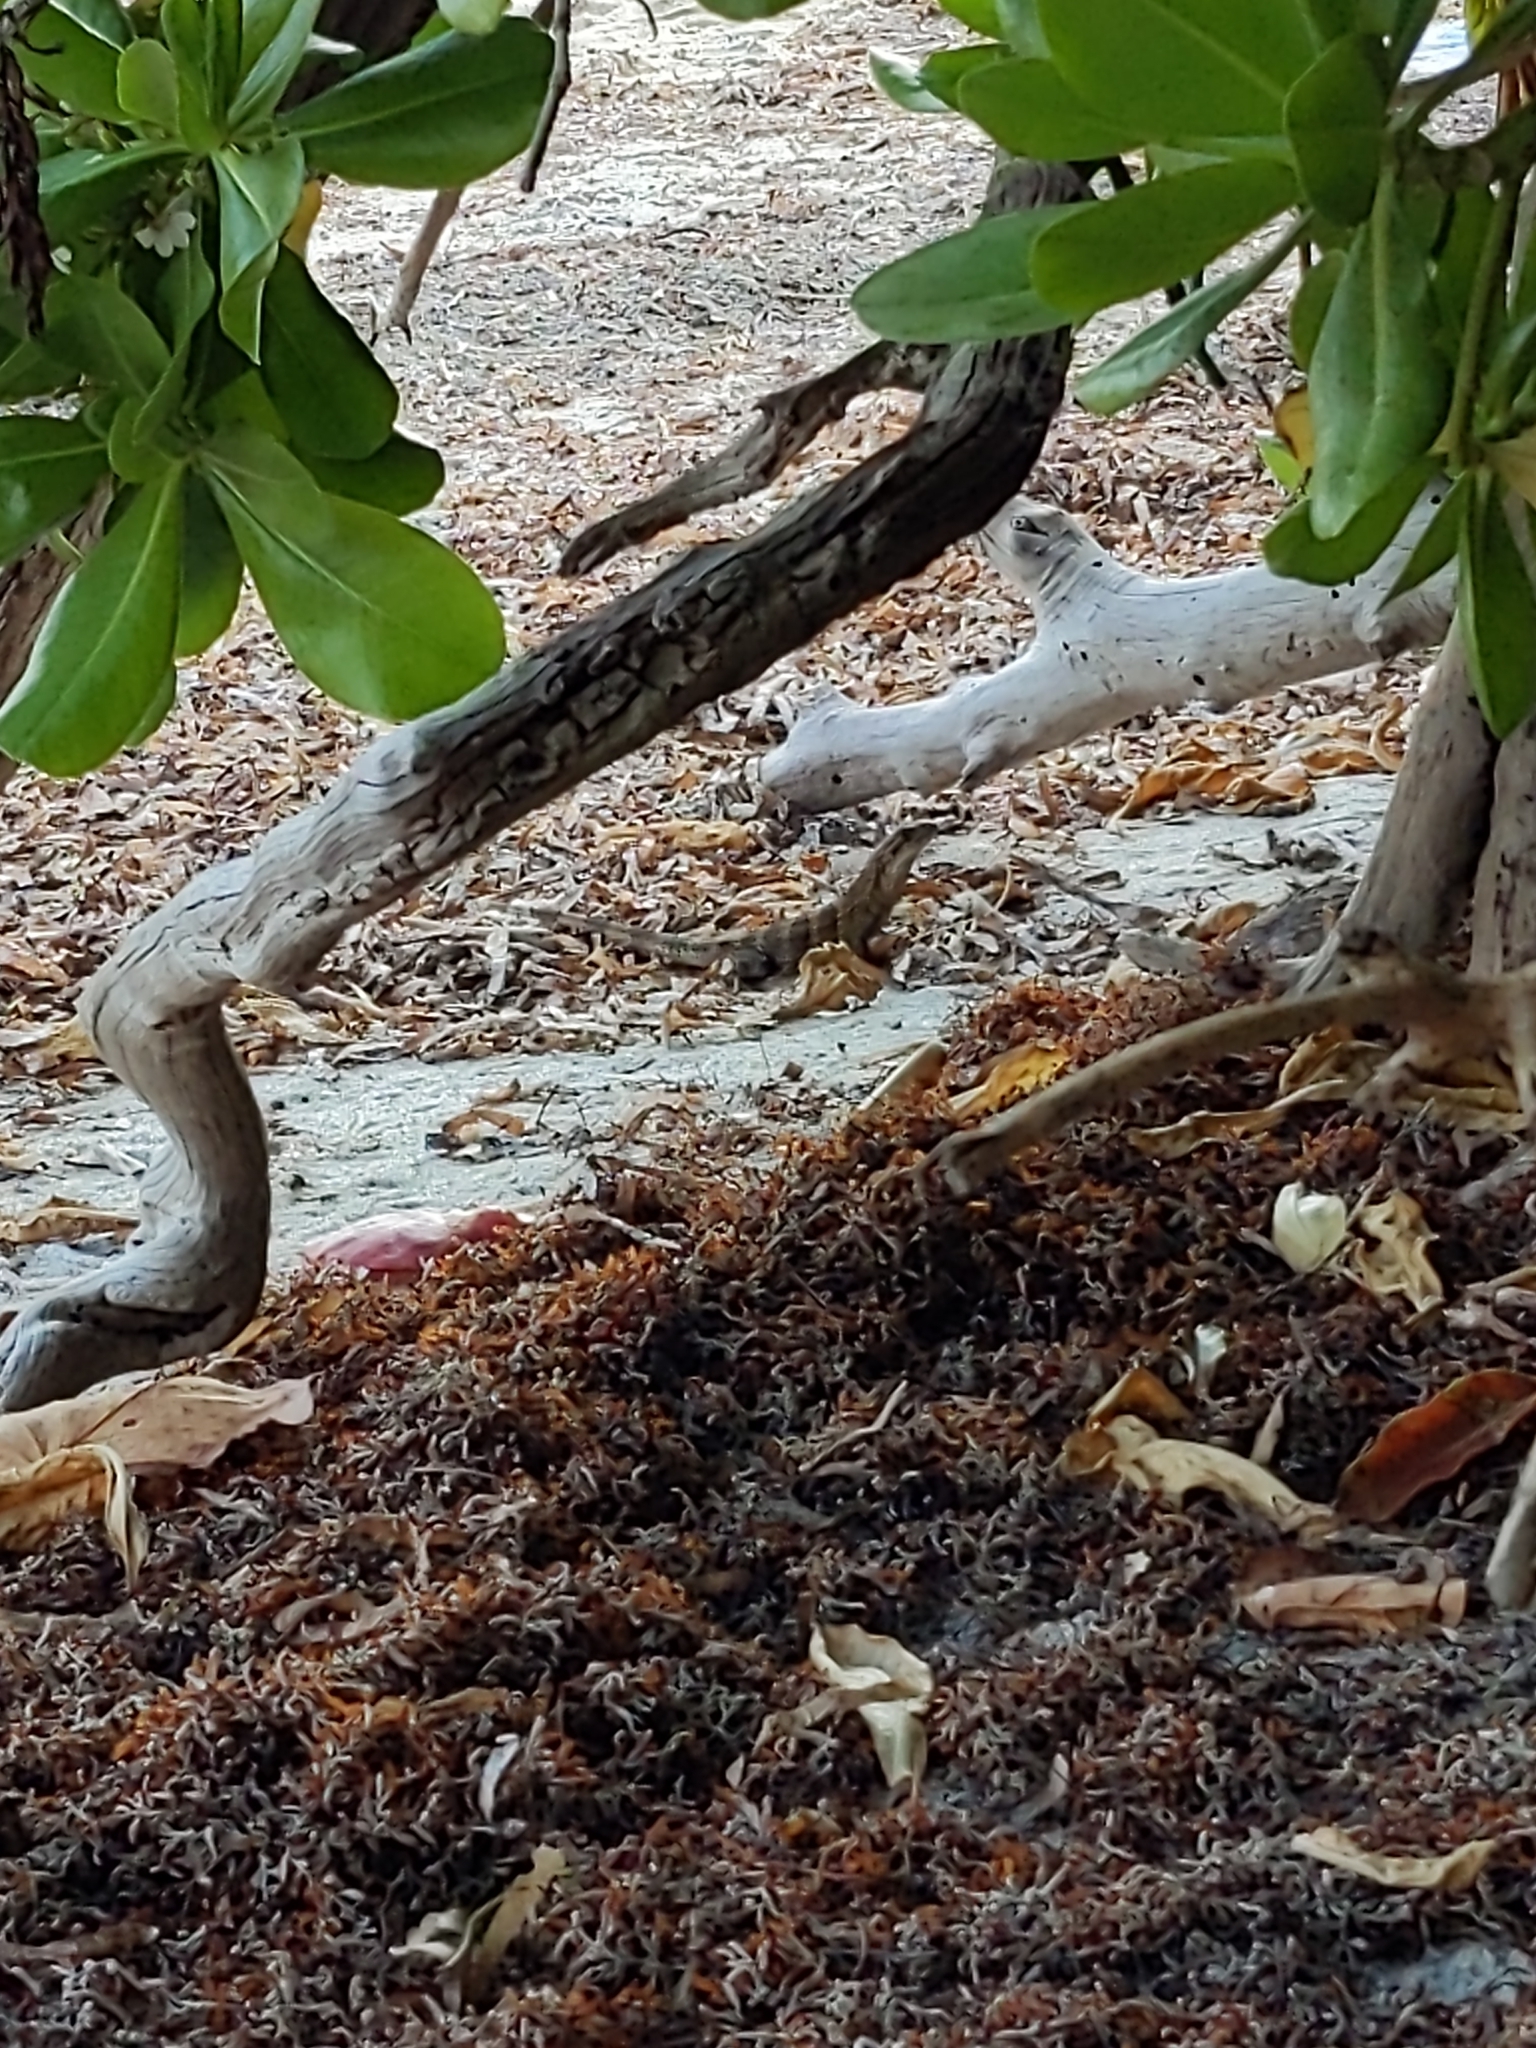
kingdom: Animalia
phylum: Chordata
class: Squamata
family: Iguanidae
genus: Ctenosaura
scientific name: Ctenosaura similis
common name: Black spiny-tailed iguana
